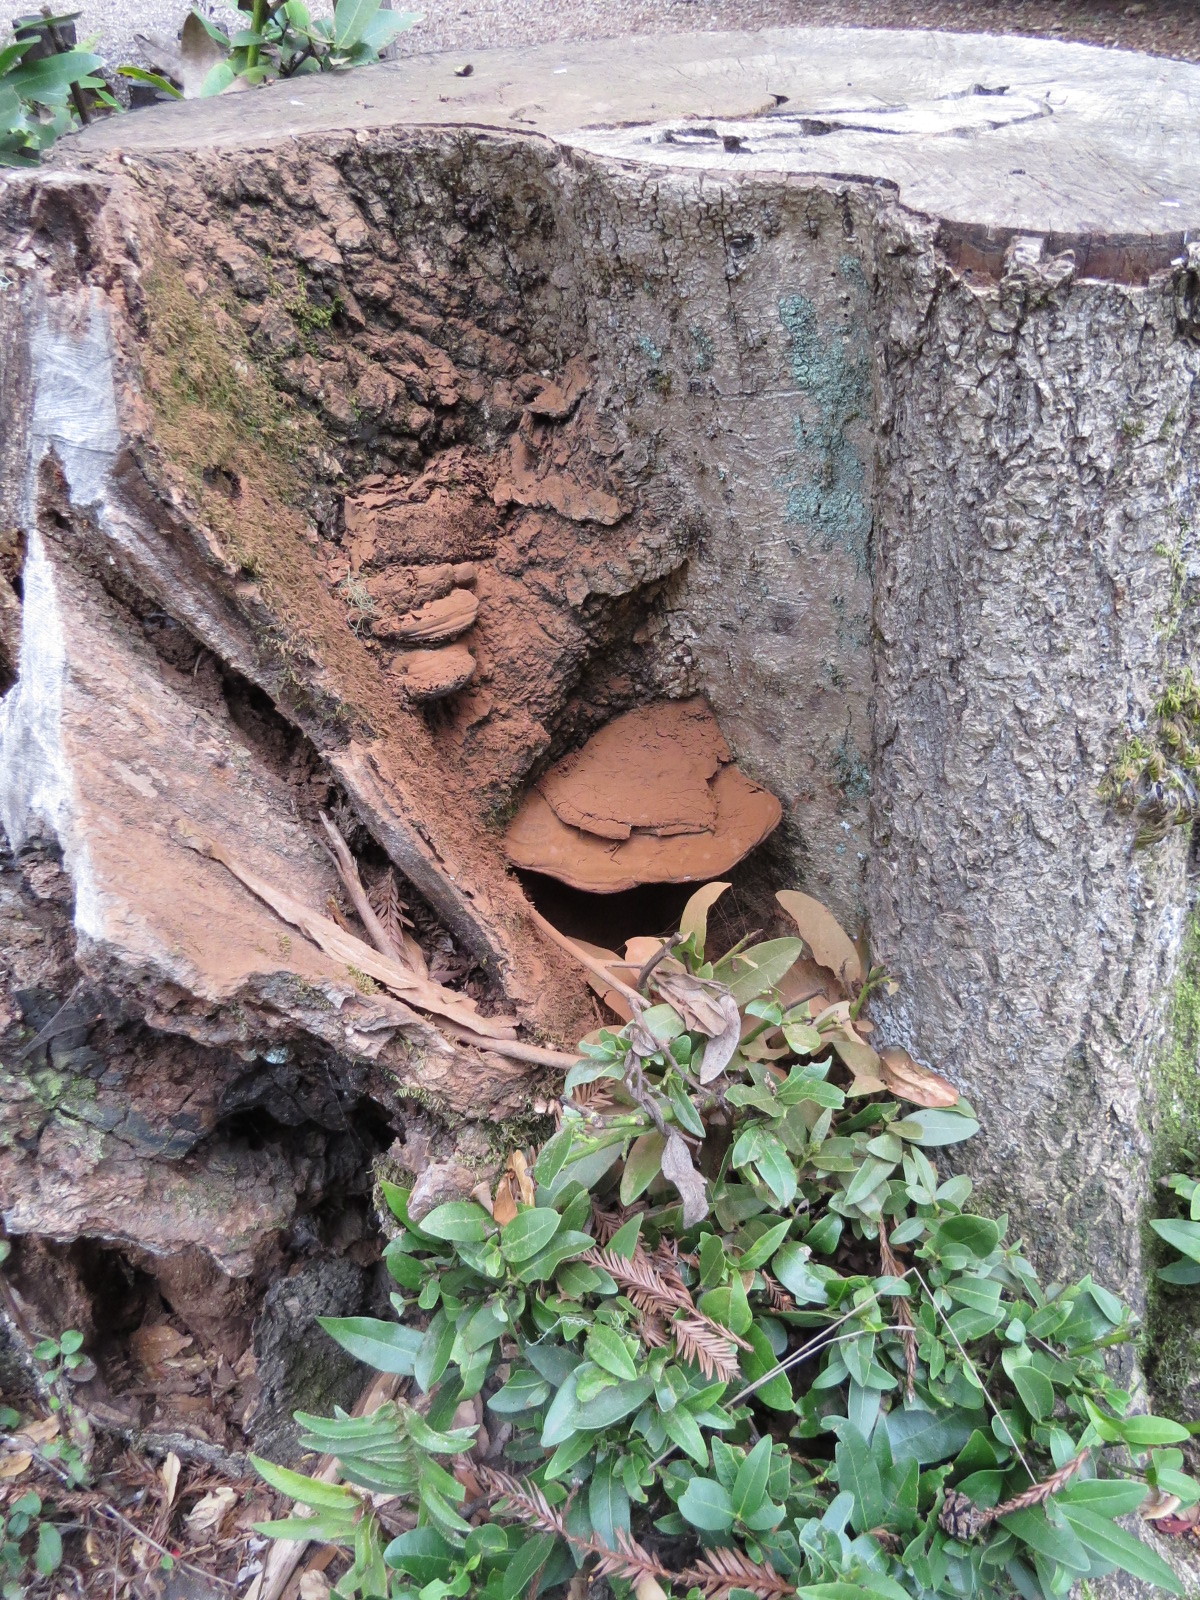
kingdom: Fungi
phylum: Basidiomycota
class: Agaricomycetes
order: Polyporales
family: Polyporaceae
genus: Ganoderma
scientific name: Ganoderma brownii
